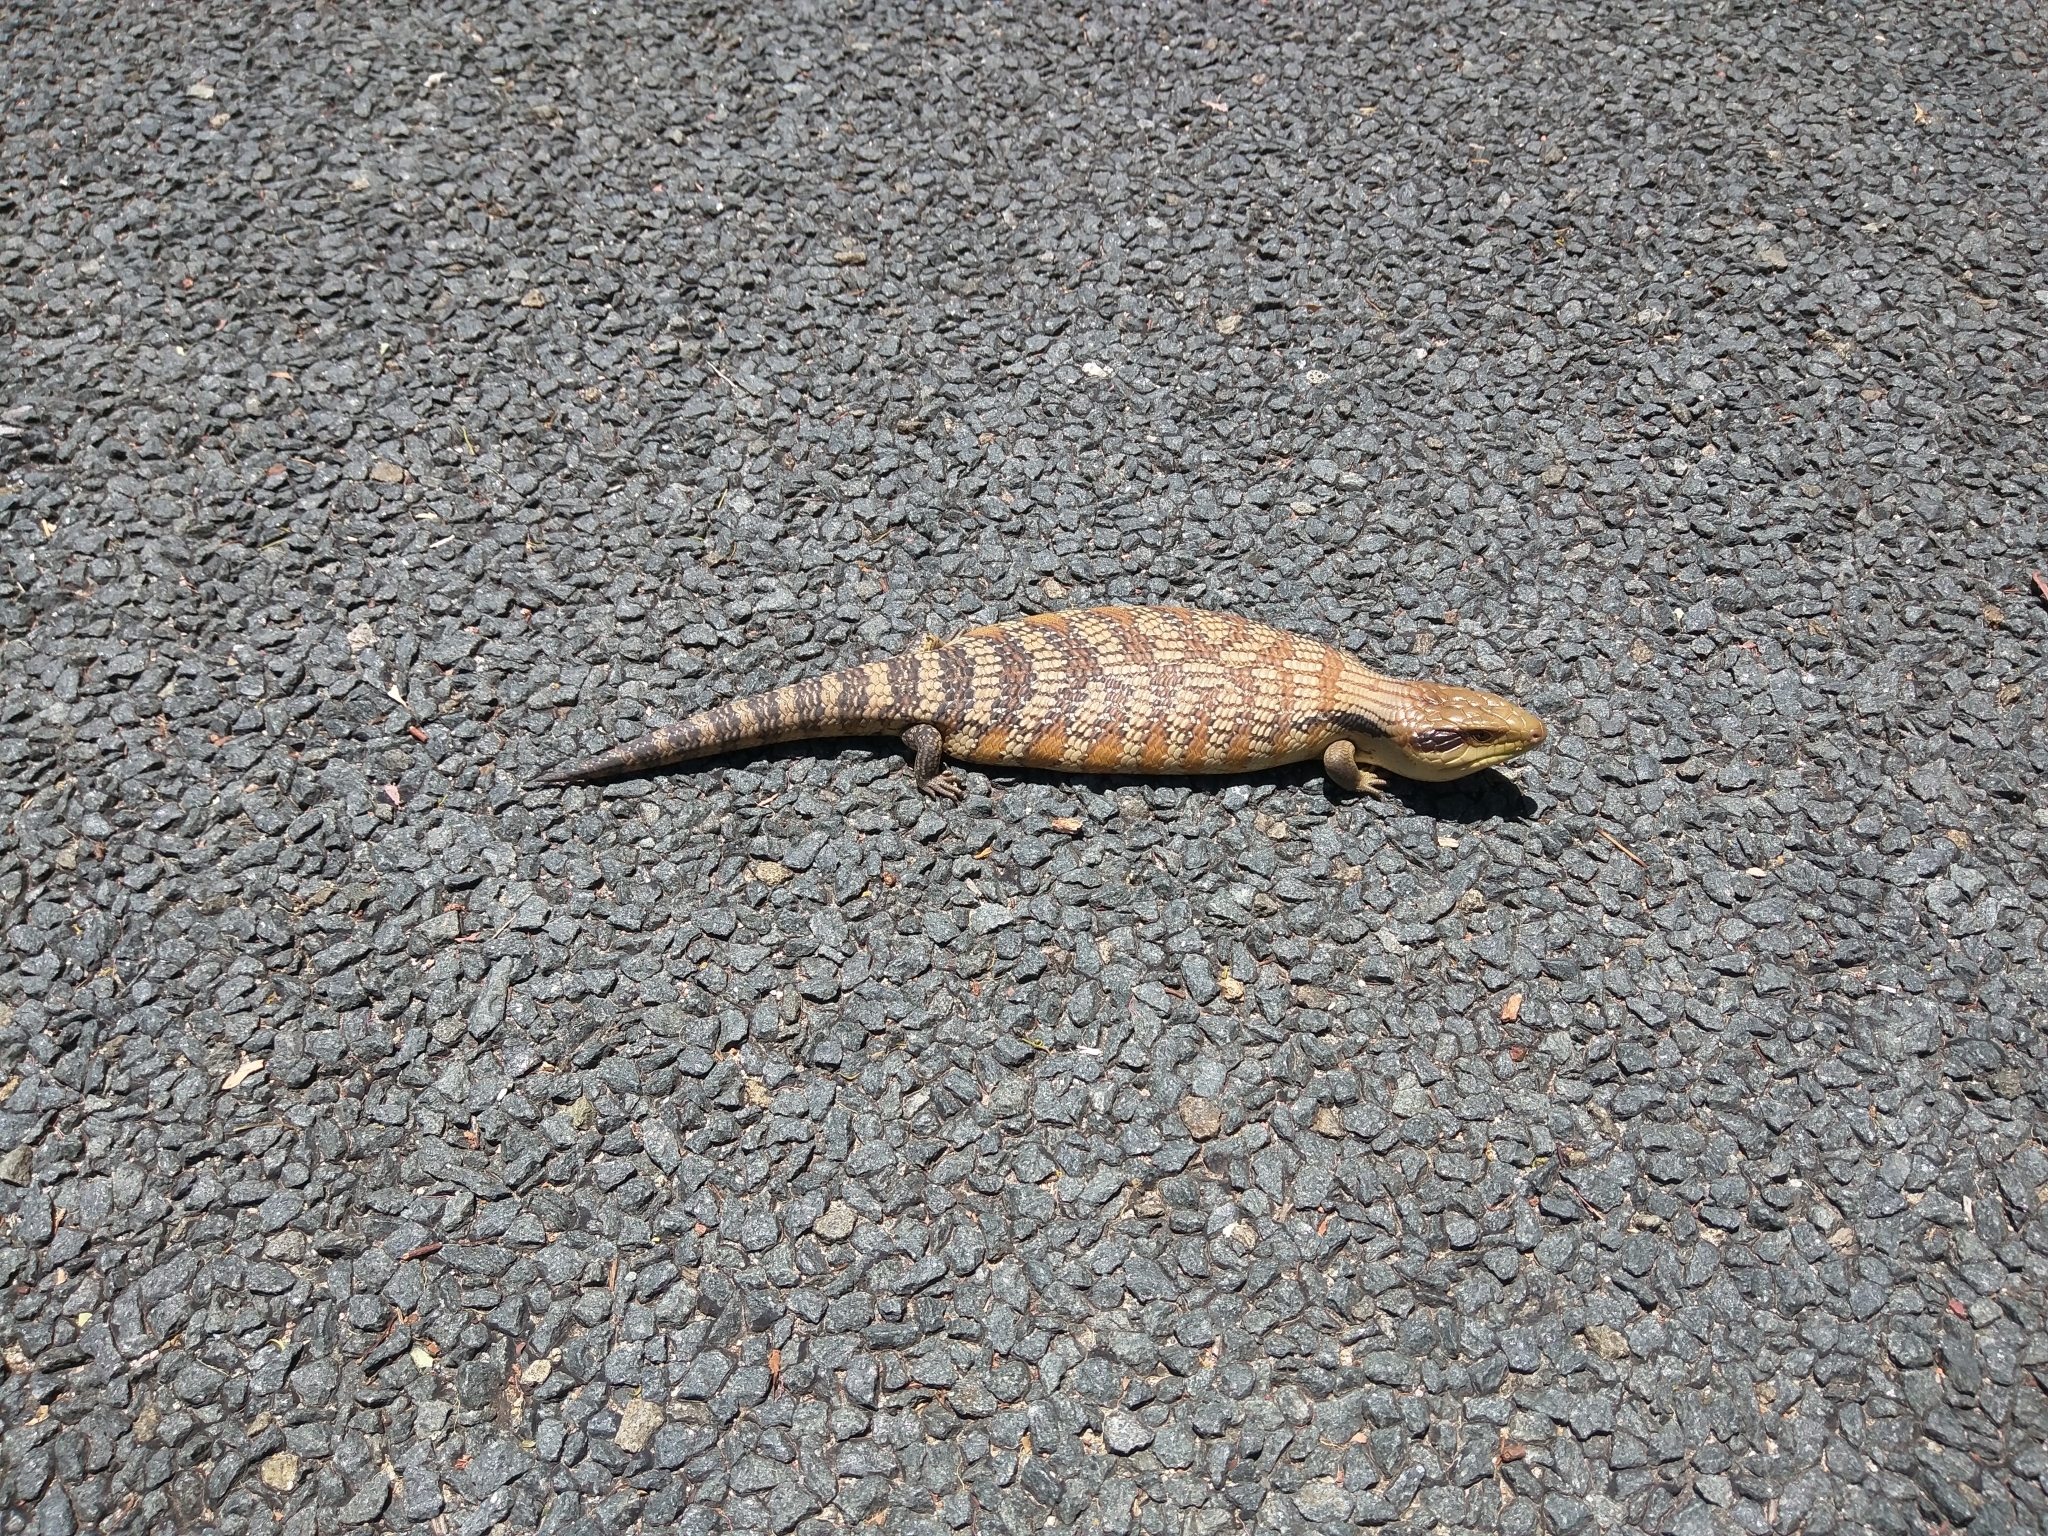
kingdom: Animalia
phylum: Chordata
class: Squamata
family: Scincidae
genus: Tiliqua
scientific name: Tiliqua scincoides
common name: Common bluetongue
